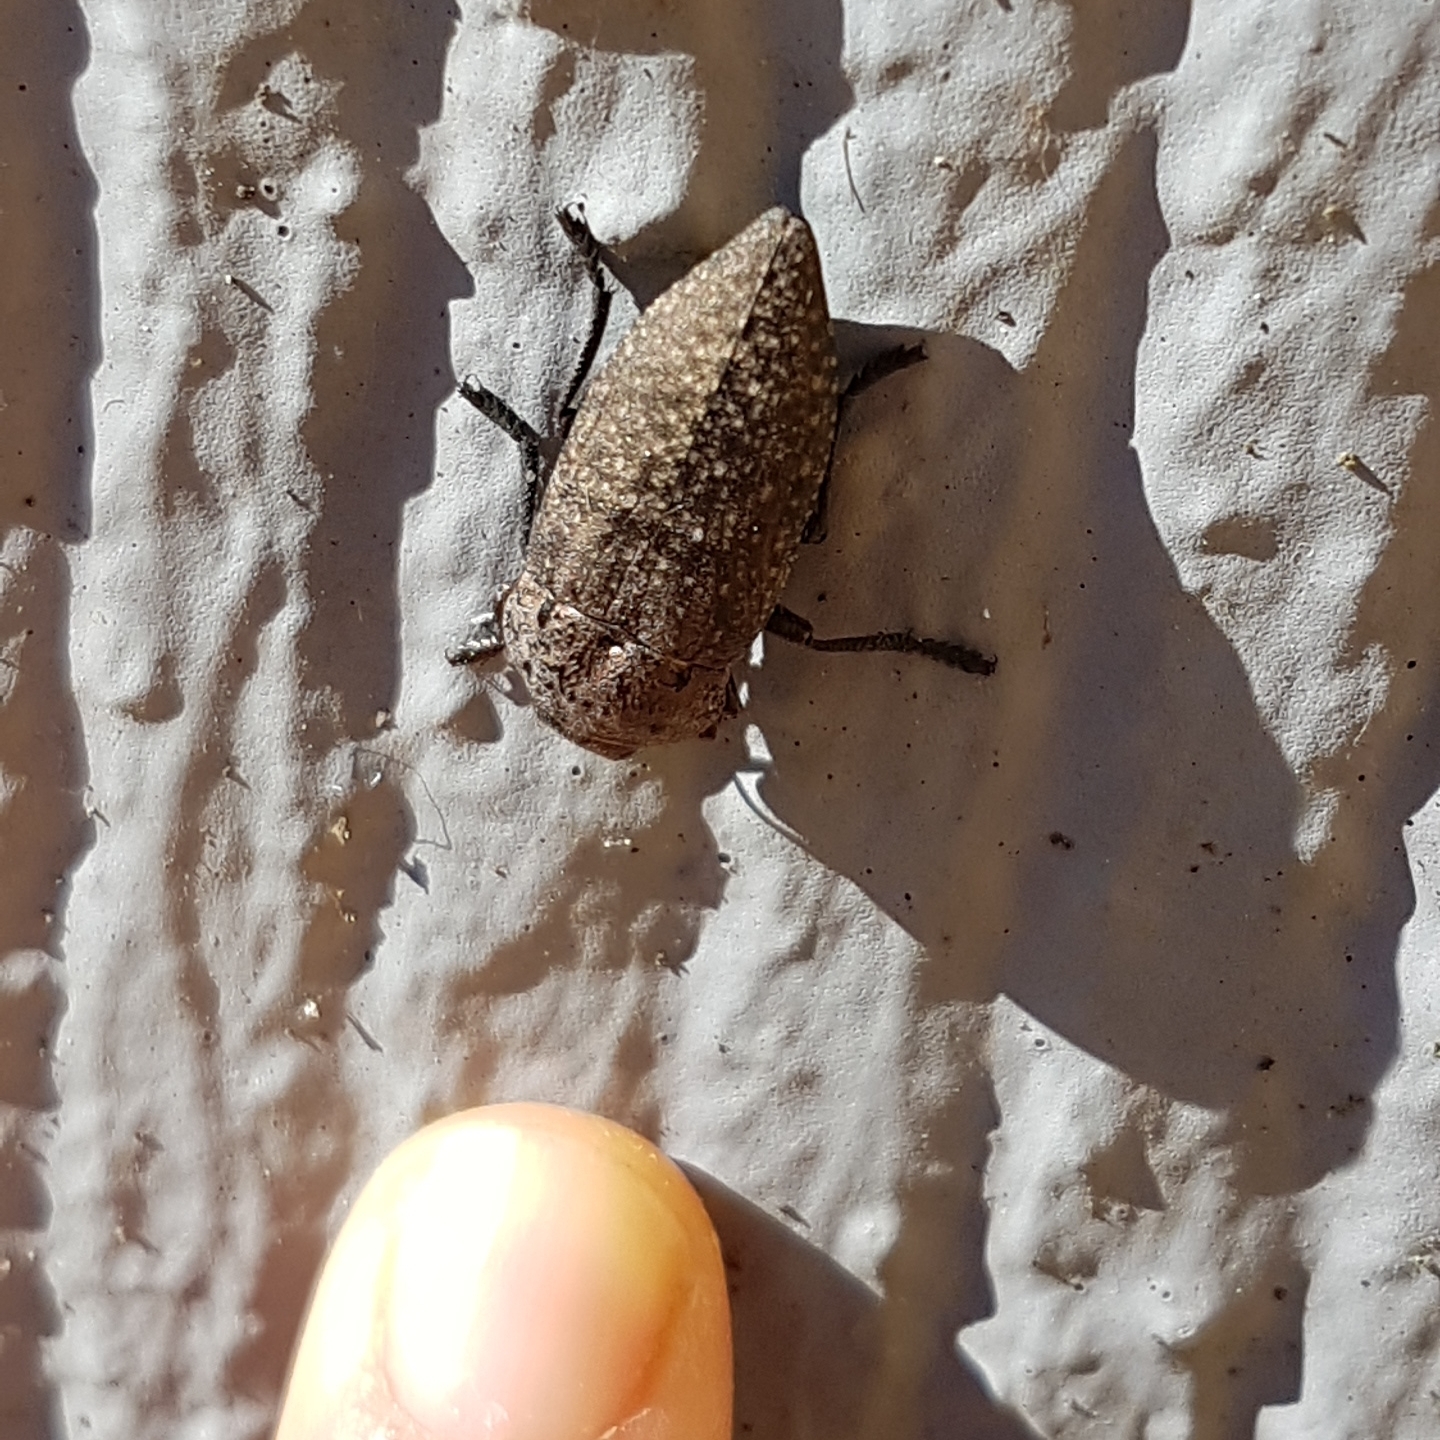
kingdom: Animalia
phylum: Arthropoda
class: Insecta
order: Coleoptera
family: Buprestidae
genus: Capnodis
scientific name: Capnodis tenebricosa
